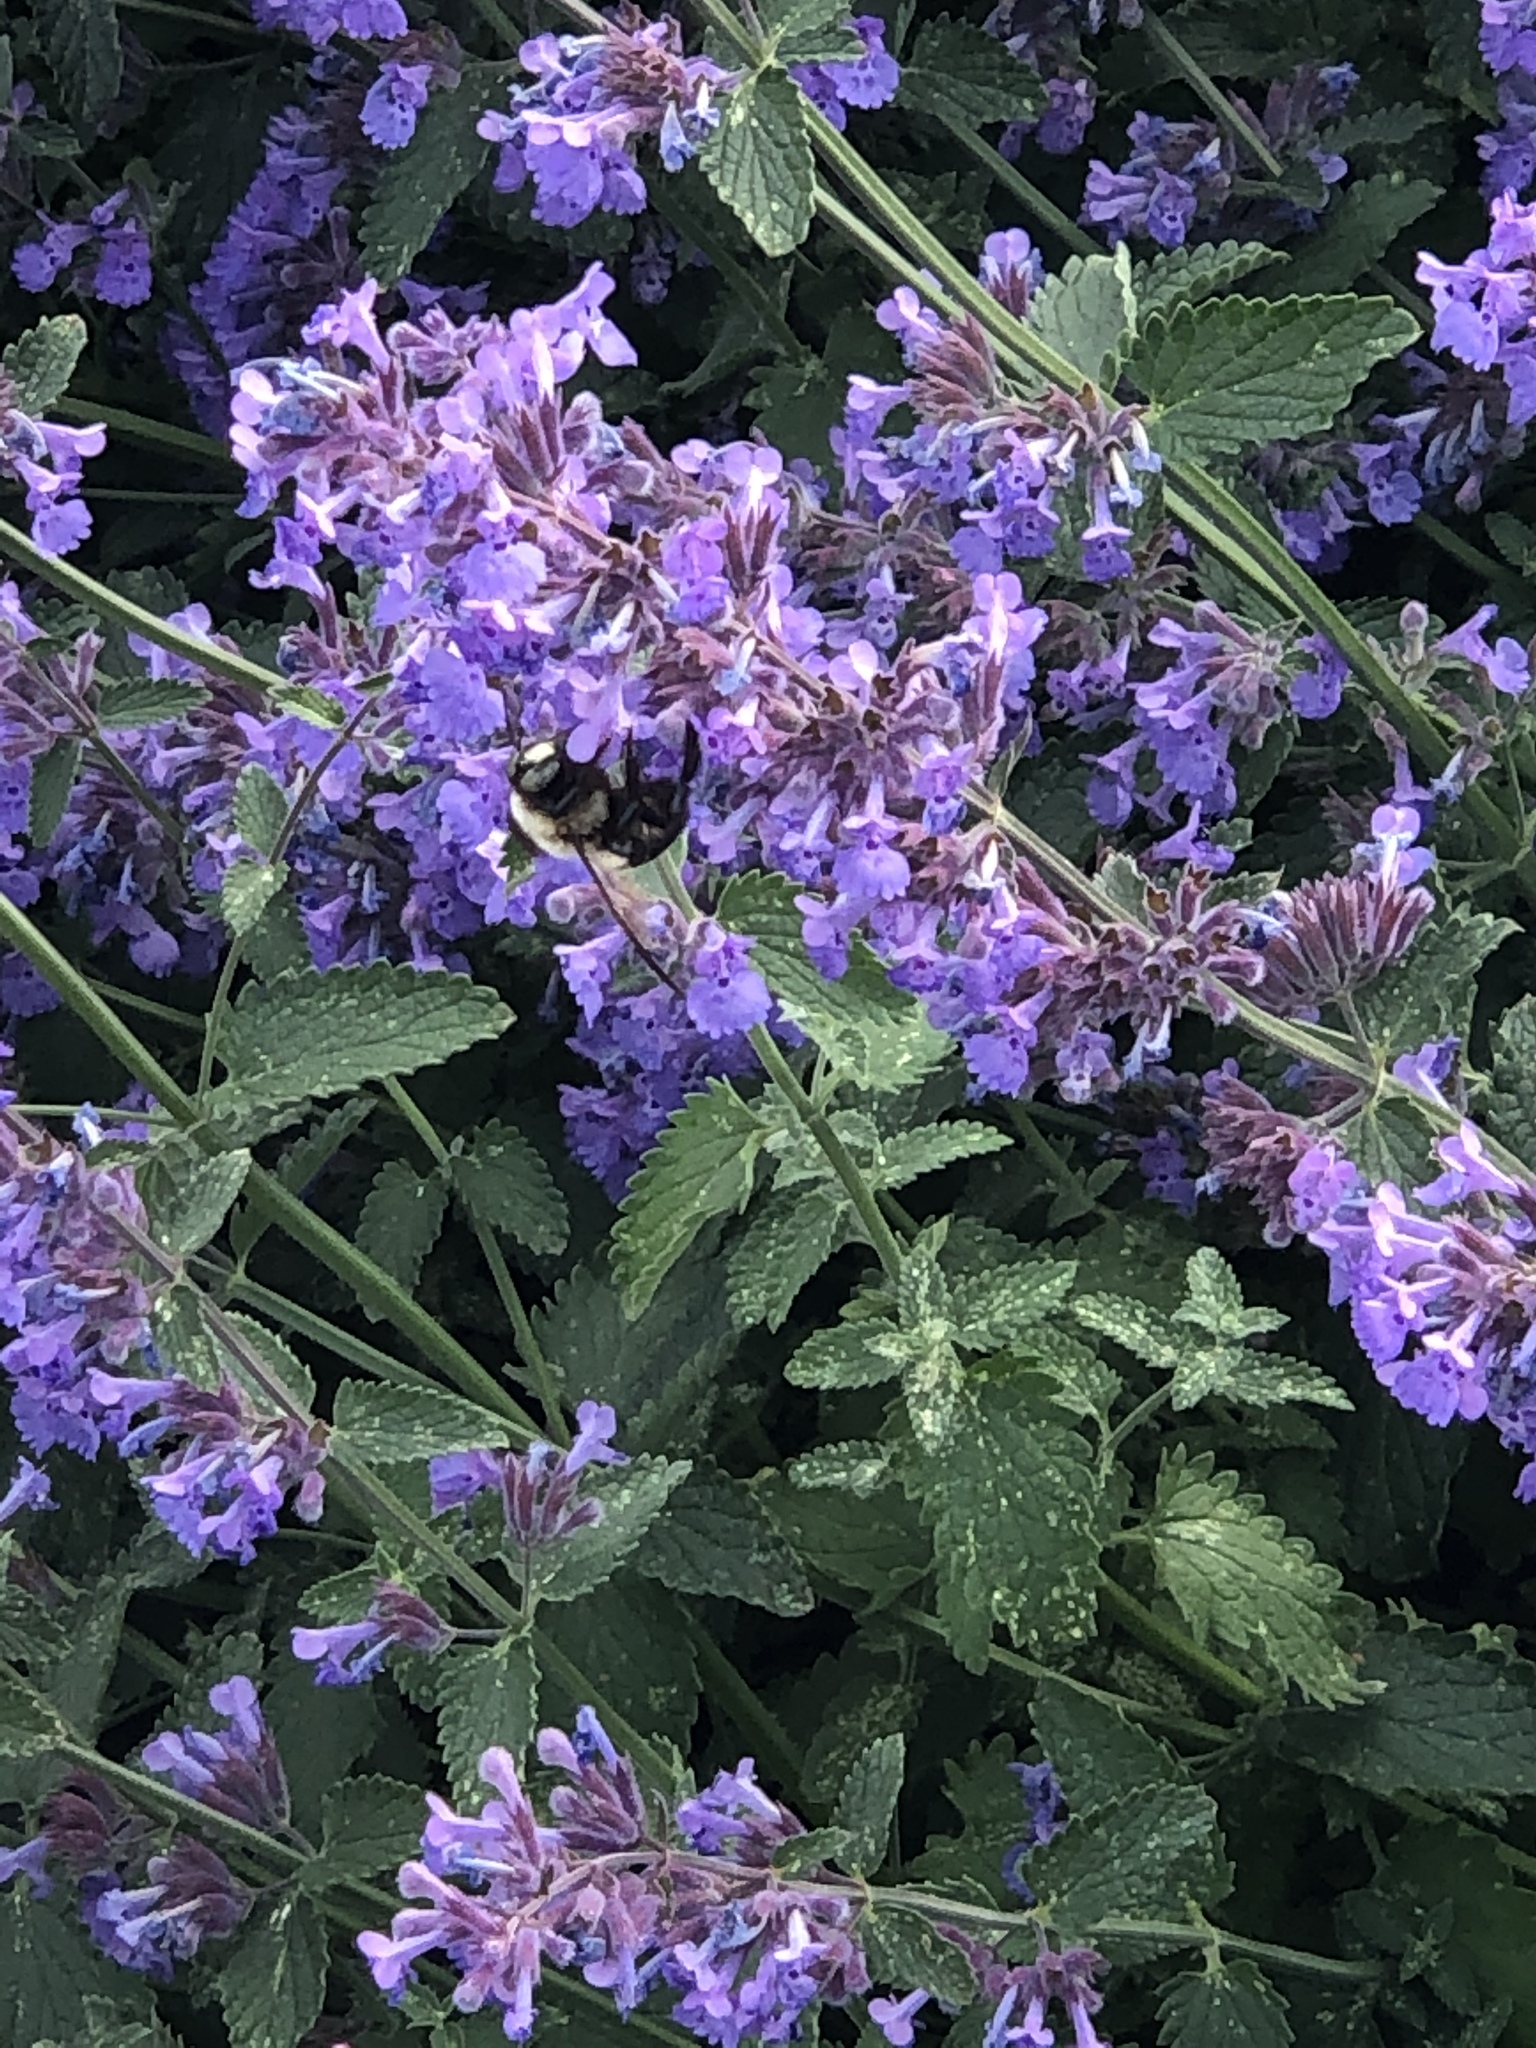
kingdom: Animalia
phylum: Arthropoda
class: Insecta
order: Hymenoptera
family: Apidae
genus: Xylocopa
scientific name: Xylocopa virginica
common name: Carpenter bee
